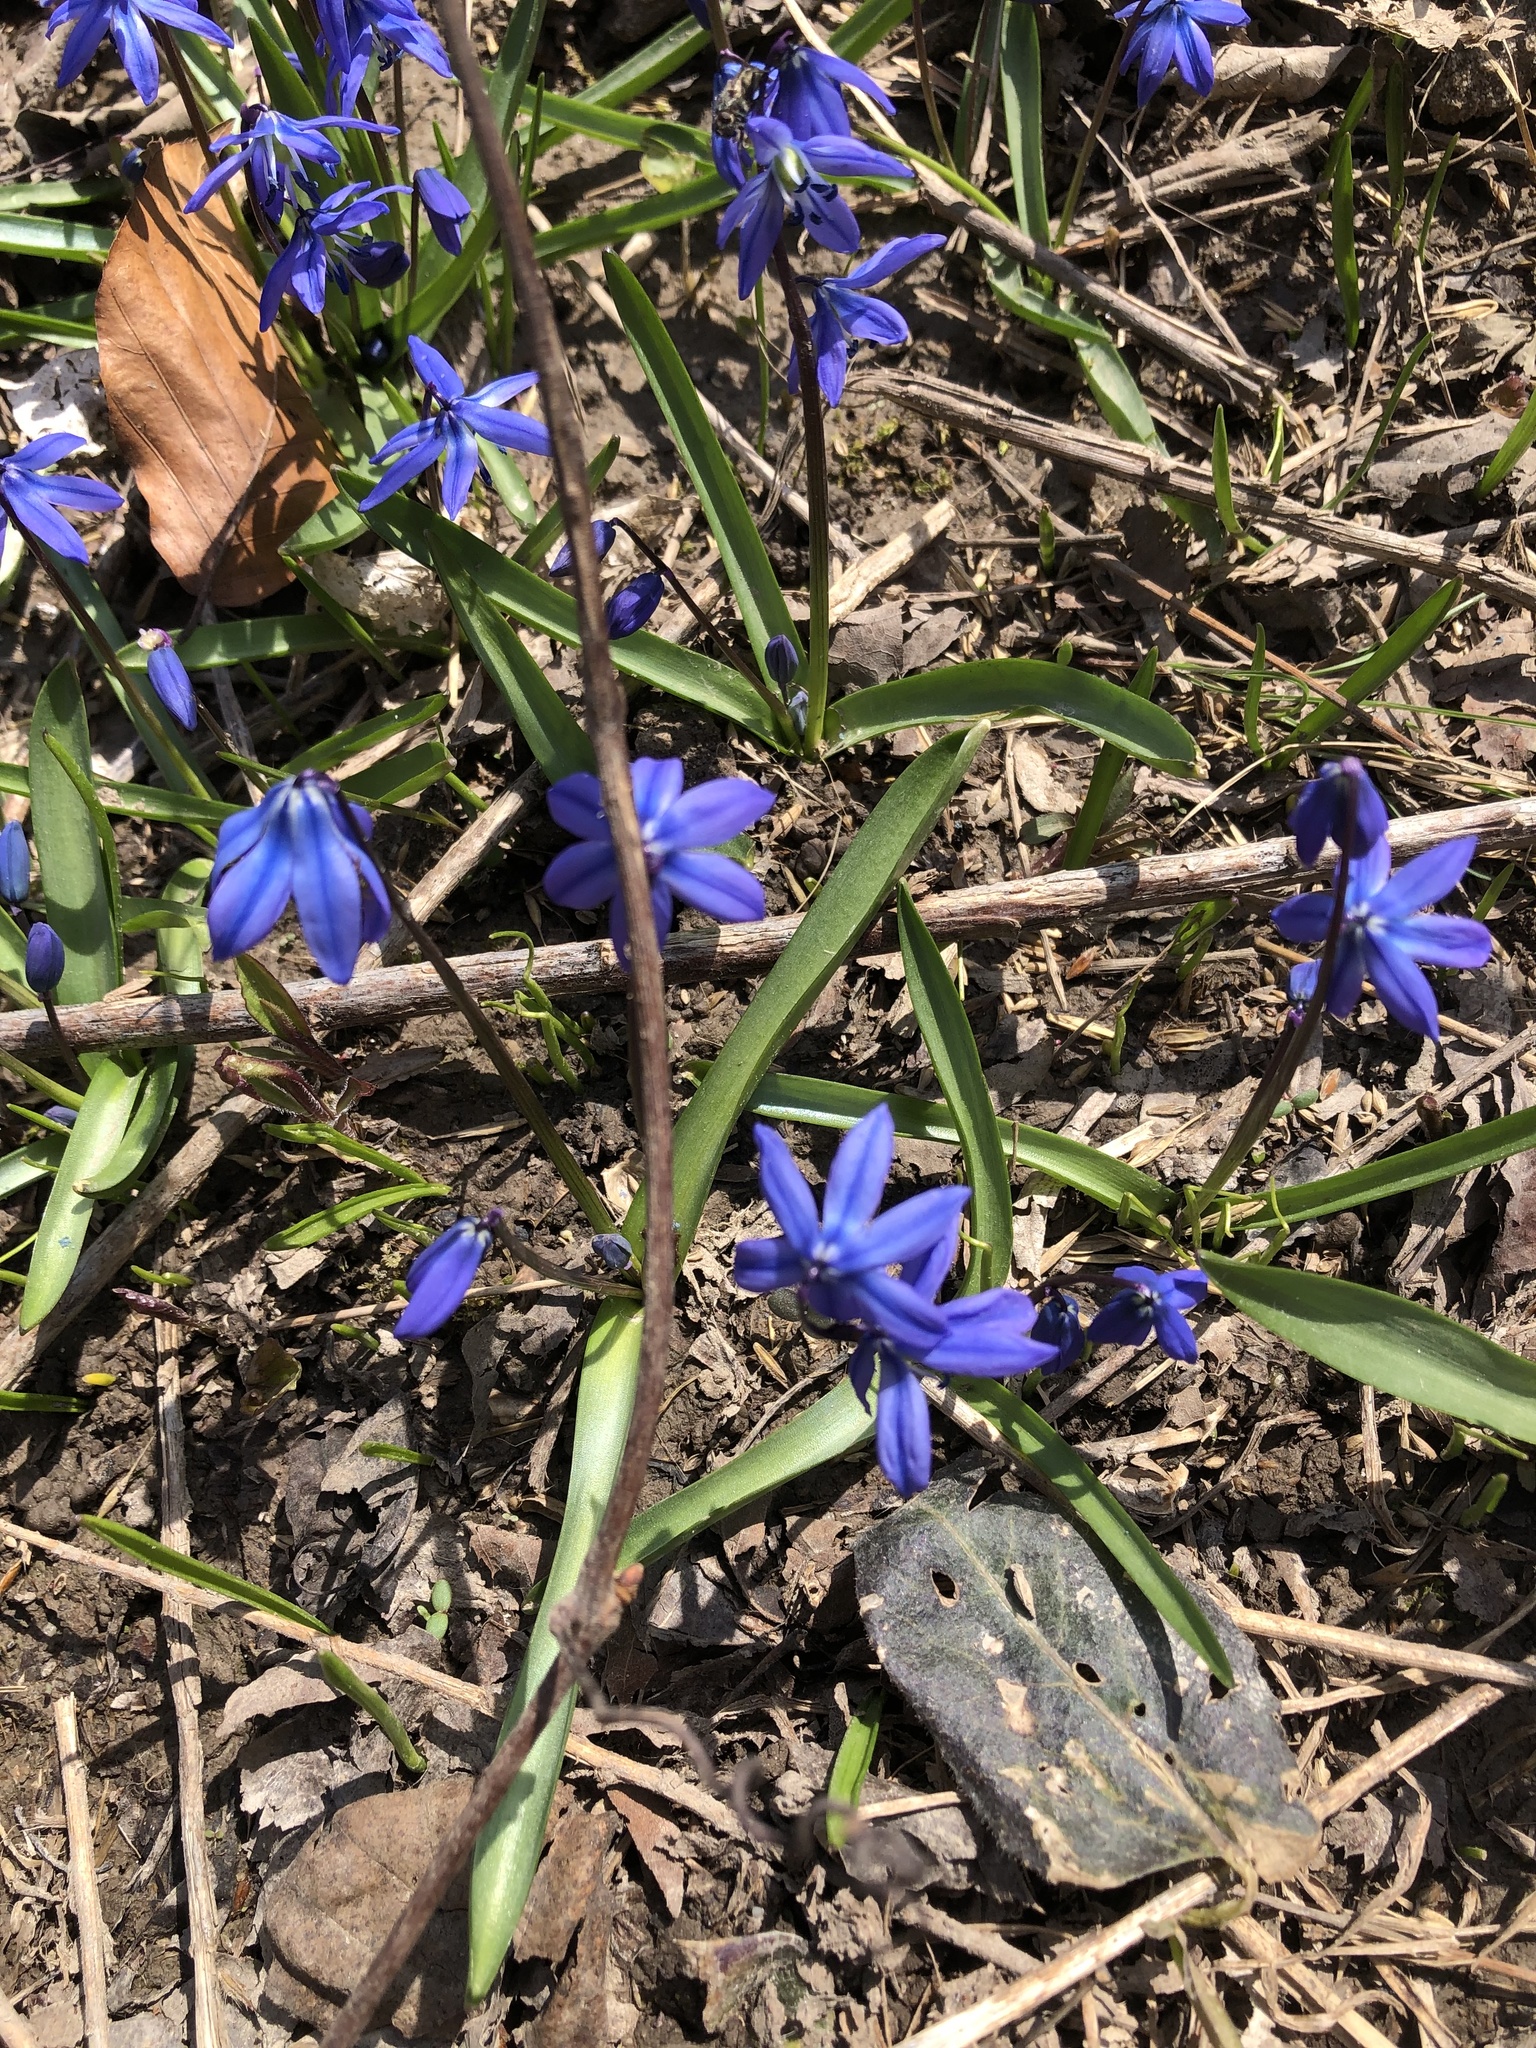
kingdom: Plantae
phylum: Tracheophyta
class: Liliopsida
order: Asparagales
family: Asparagaceae
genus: Scilla
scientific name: Scilla siberica
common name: Siberian squill
